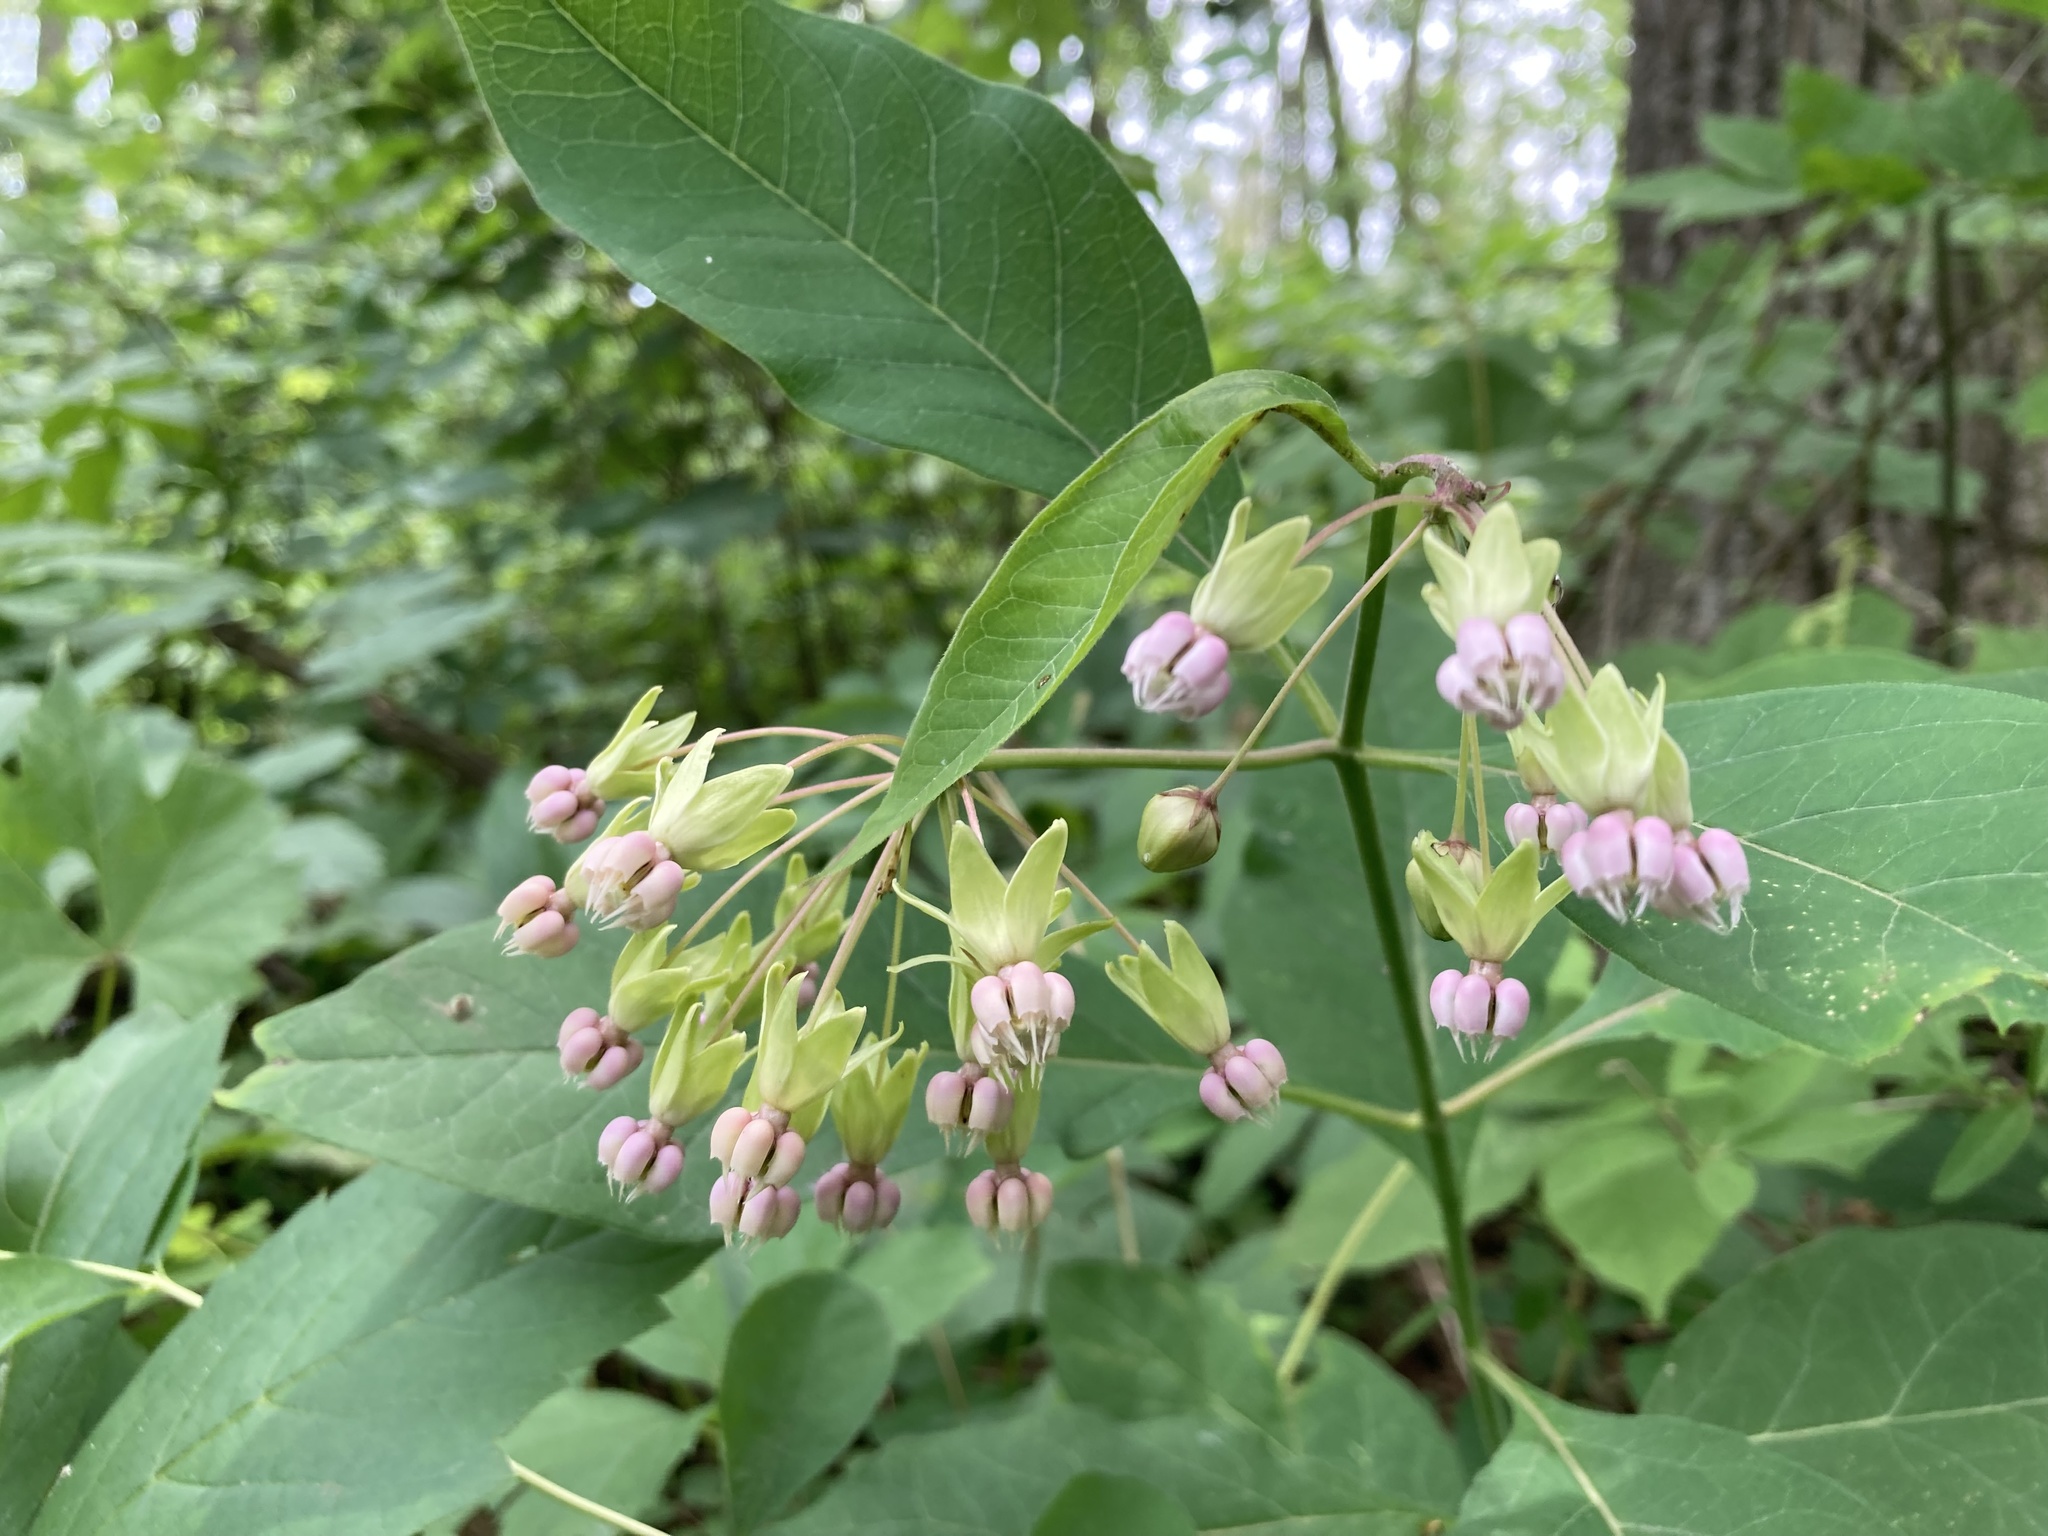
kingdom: Plantae
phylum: Tracheophyta
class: Magnoliopsida
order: Gentianales
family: Apocynaceae
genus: Asclepias
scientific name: Asclepias exaltata
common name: Poke milkweed
